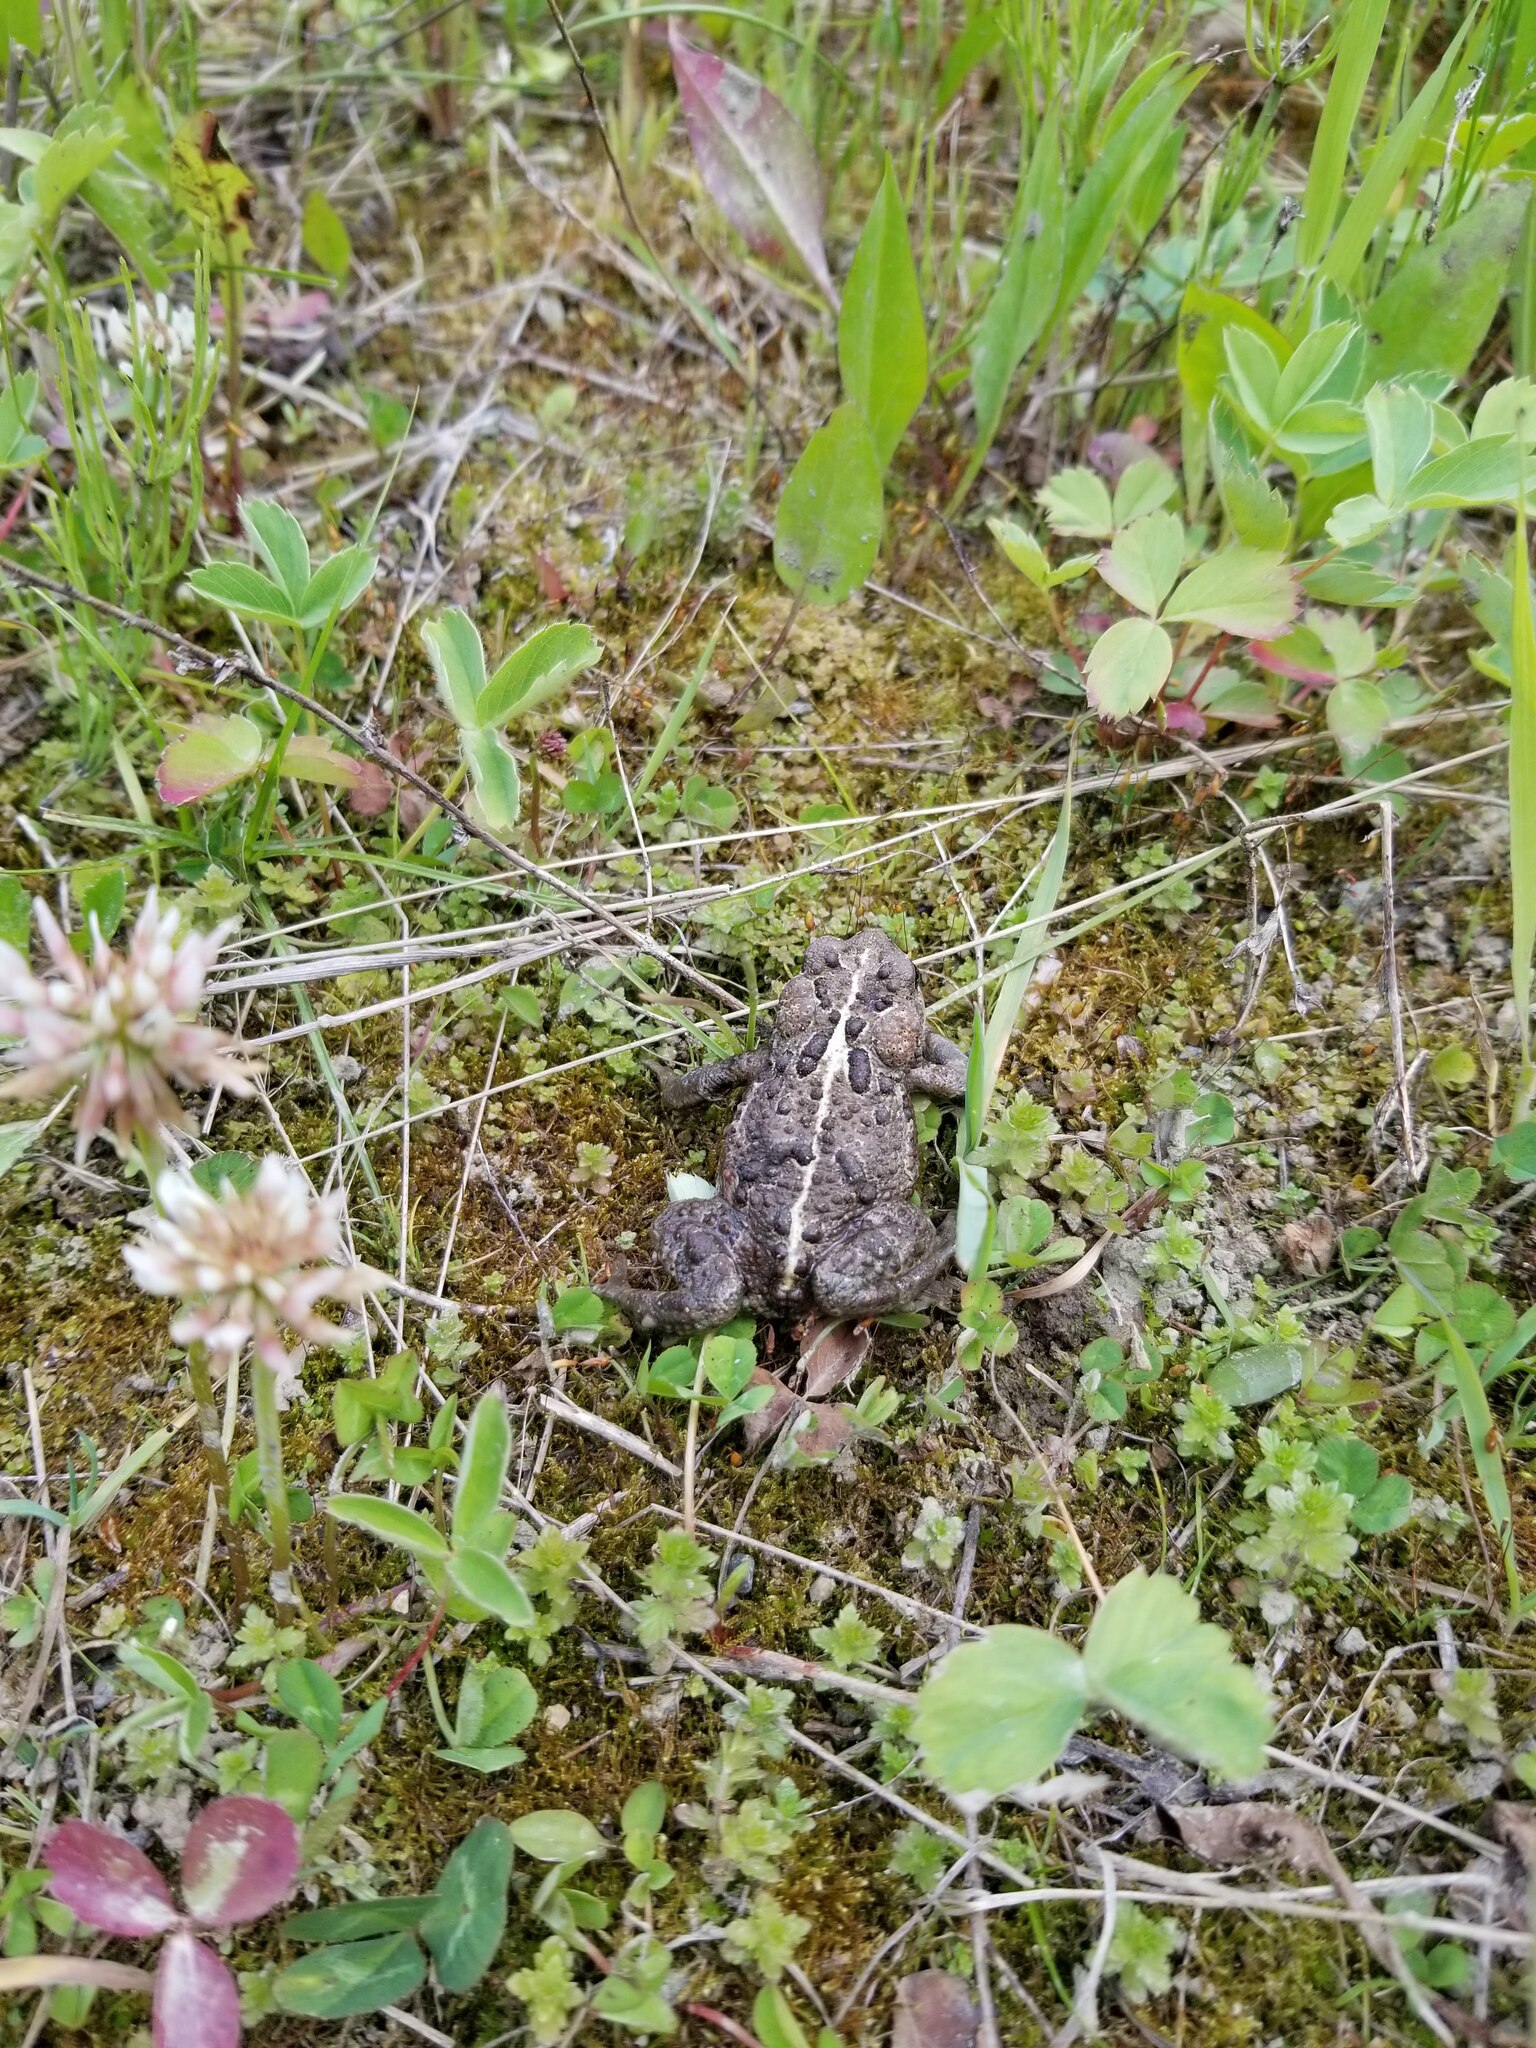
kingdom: Animalia
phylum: Chordata
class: Amphibia
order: Anura
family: Bufonidae
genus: Anaxyrus
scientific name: Anaxyrus boreas
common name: Western toad
